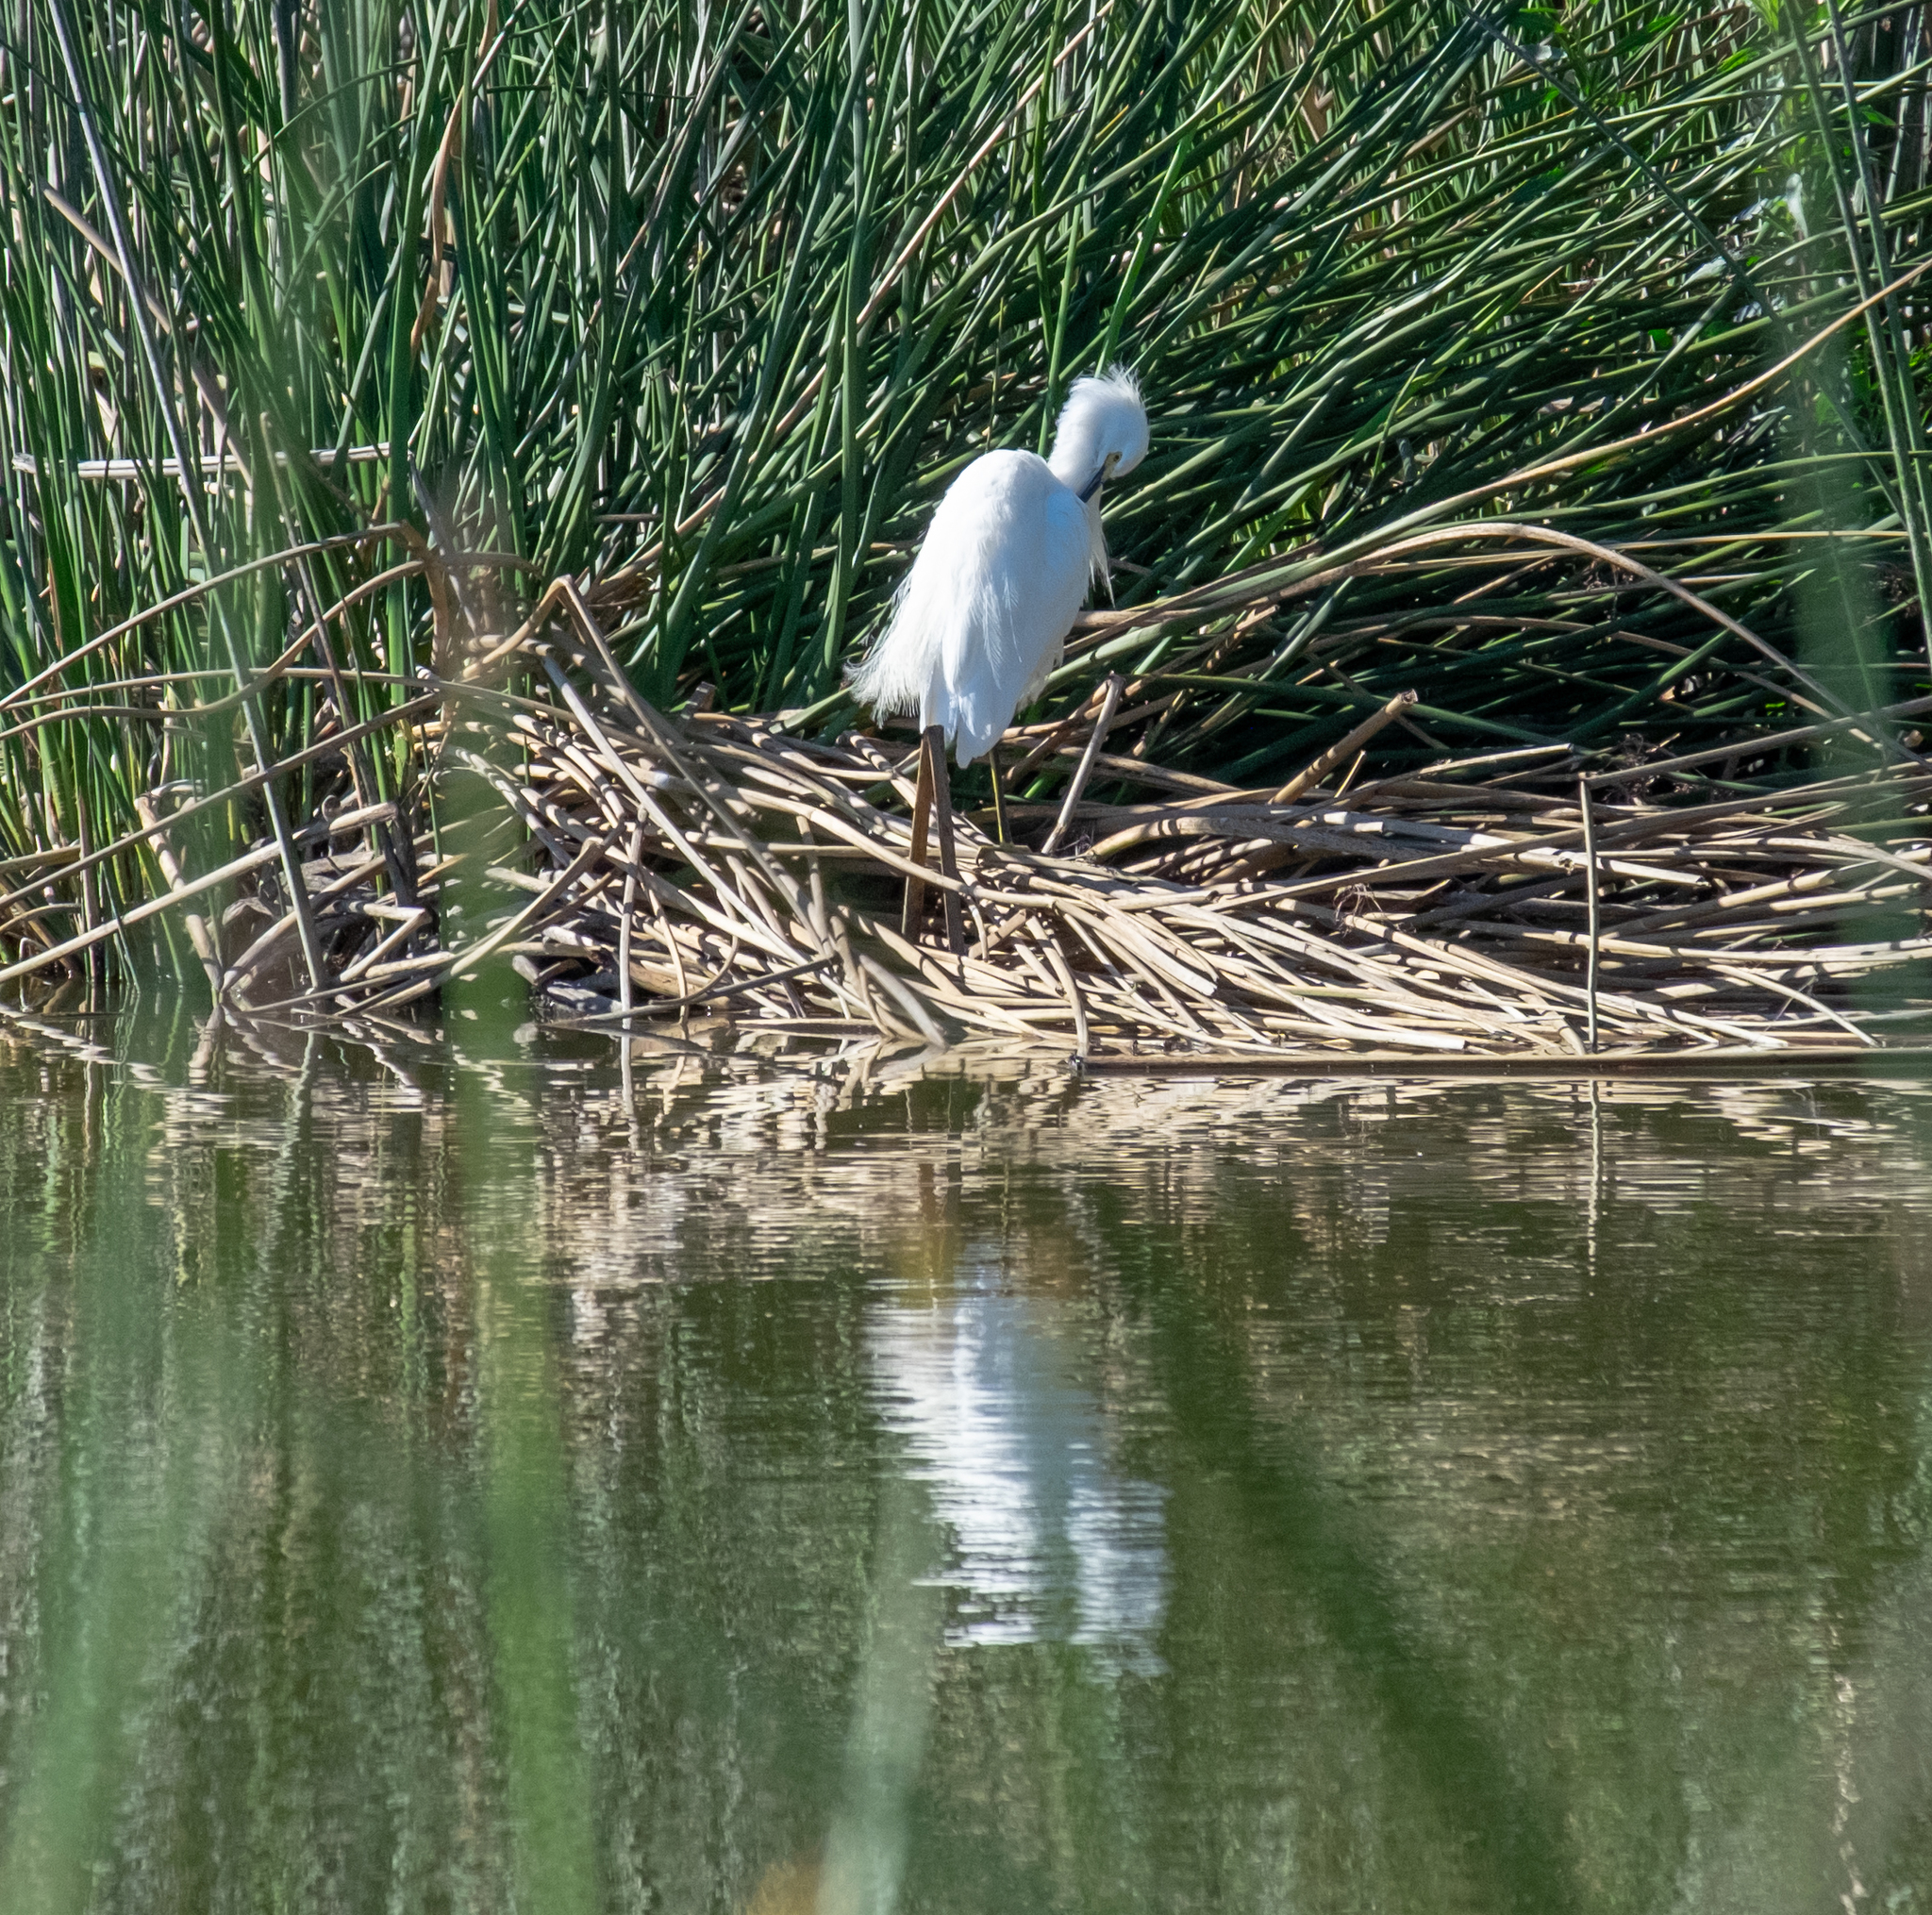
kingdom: Animalia
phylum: Chordata
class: Aves
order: Pelecaniformes
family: Ardeidae
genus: Egretta
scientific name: Egretta thula
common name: Snowy egret
